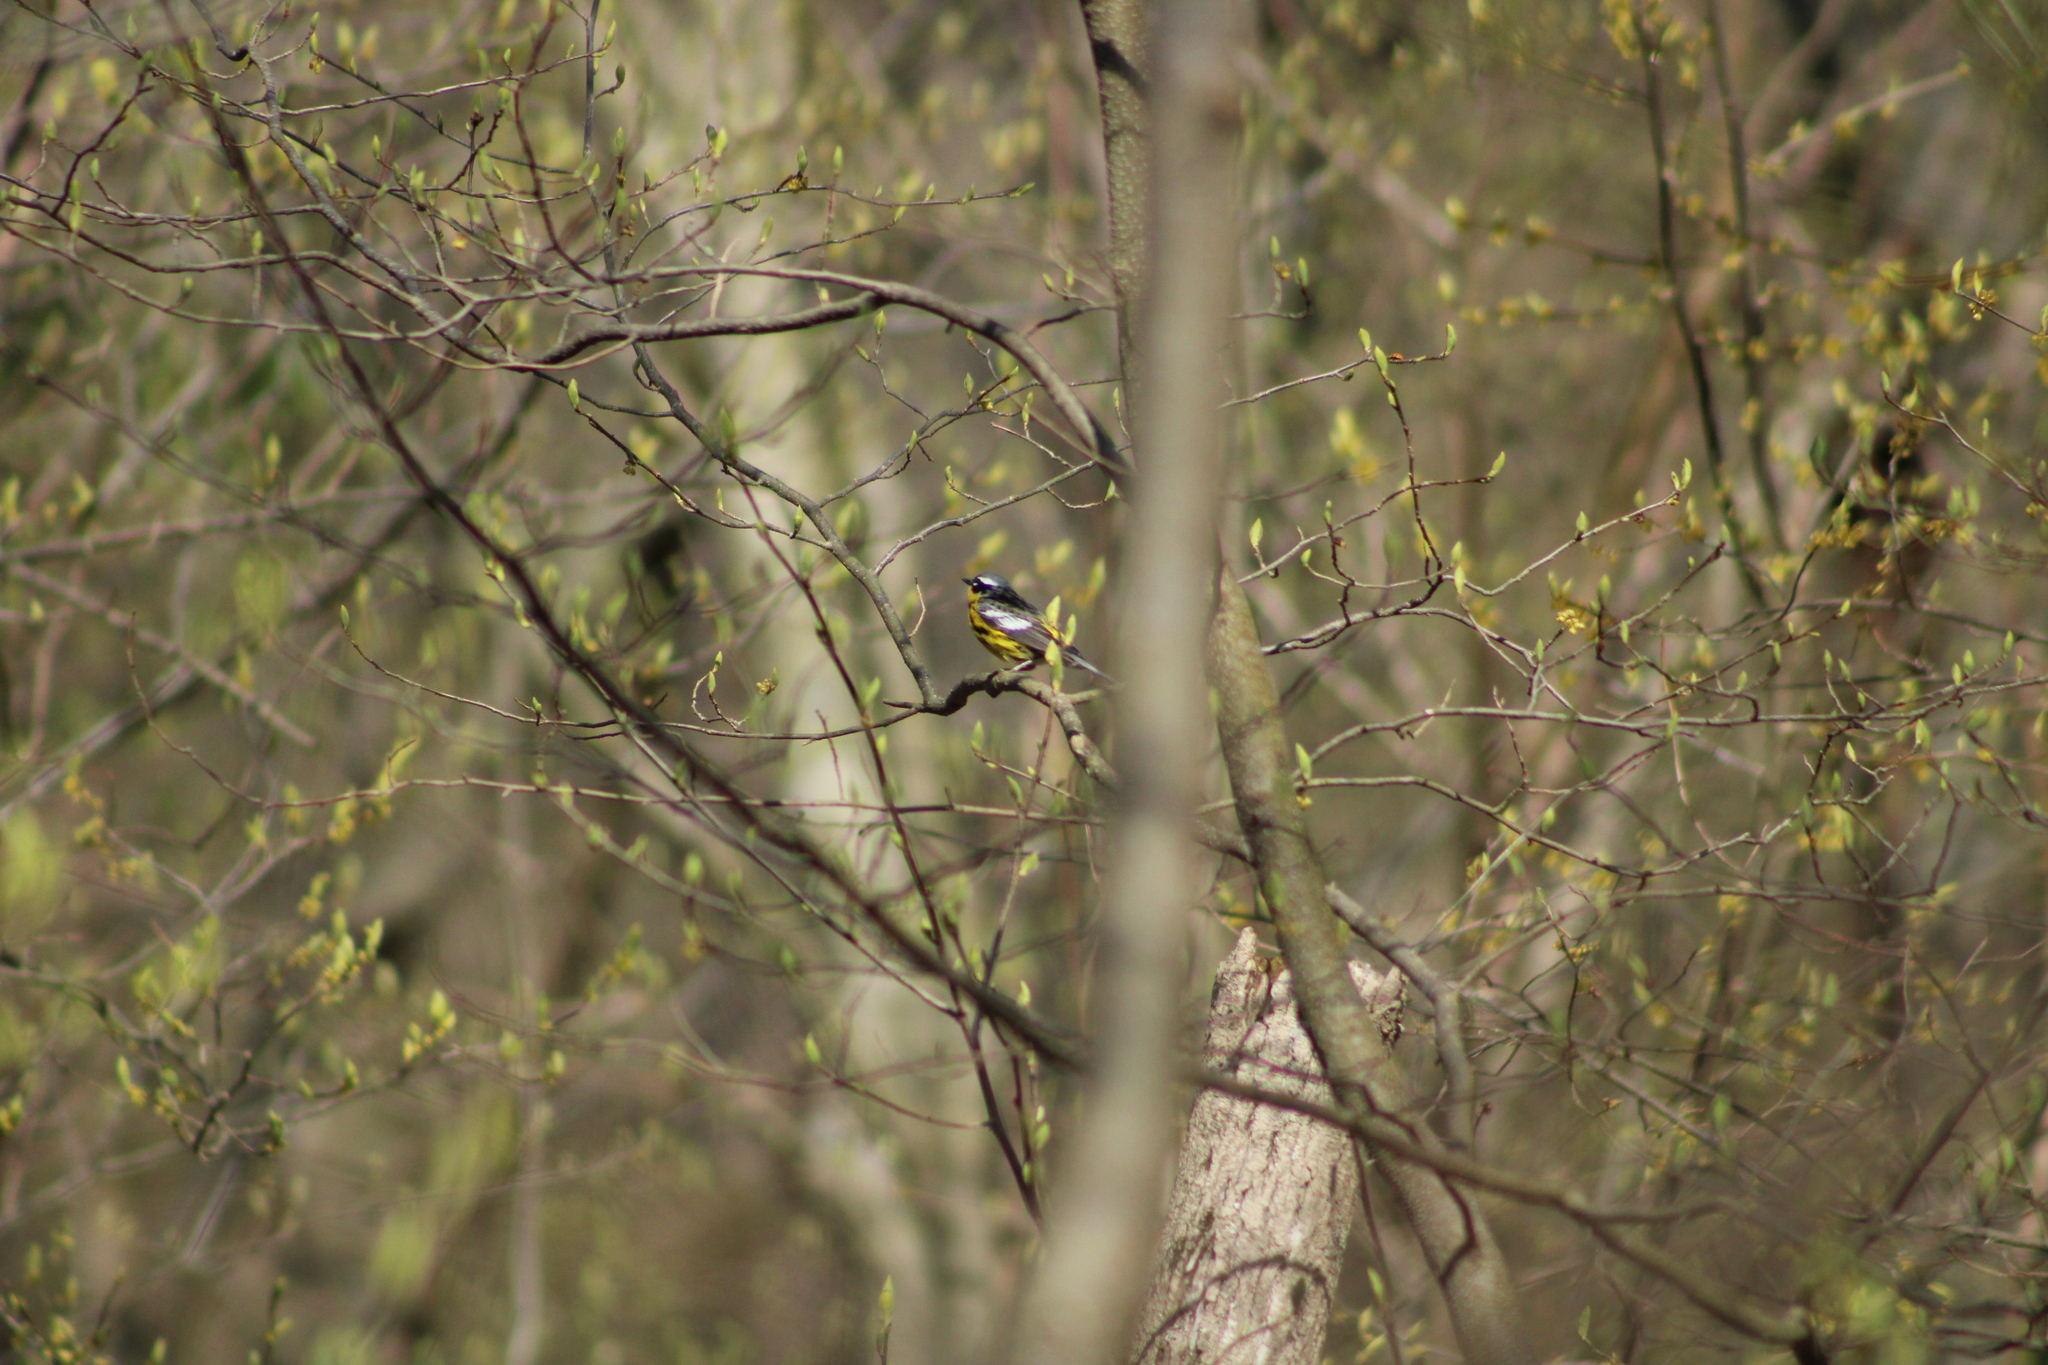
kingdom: Animalia
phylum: Chordata
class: Aves
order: Passeriformes
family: Parulidae
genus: Setophaga
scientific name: Setophaga magnolia
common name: Magnolia warbler
